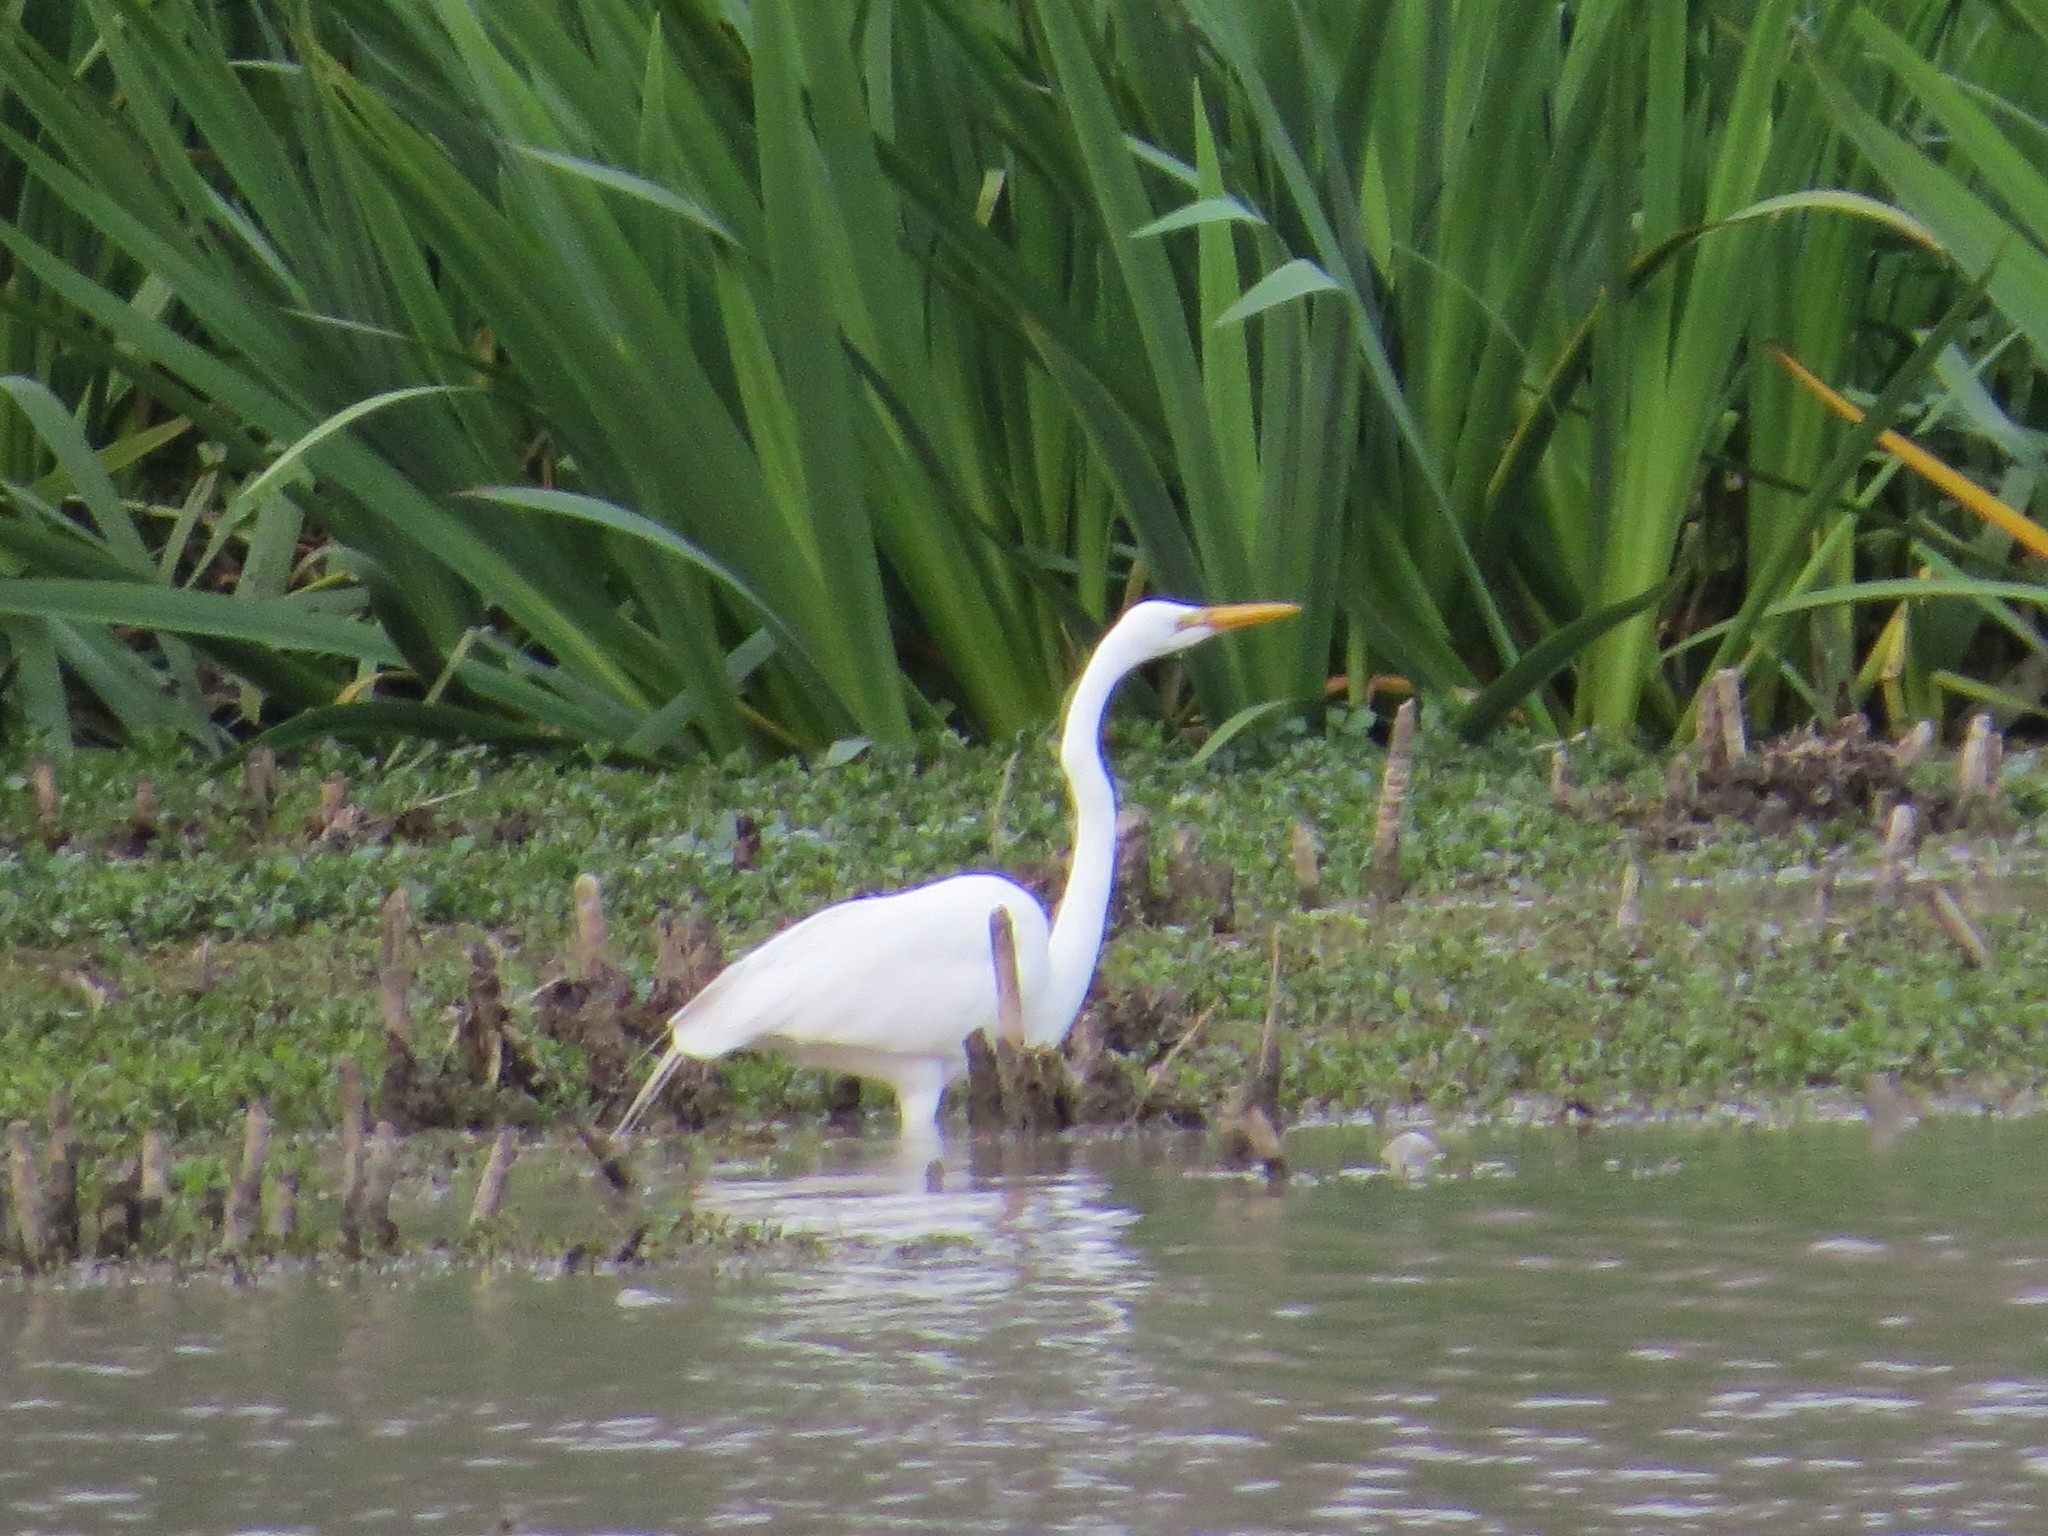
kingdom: Animalia
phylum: Chordata
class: Aves
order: Pelecaniformes
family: Ardeidae
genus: Ardea
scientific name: Ardea alba
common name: Great egret
